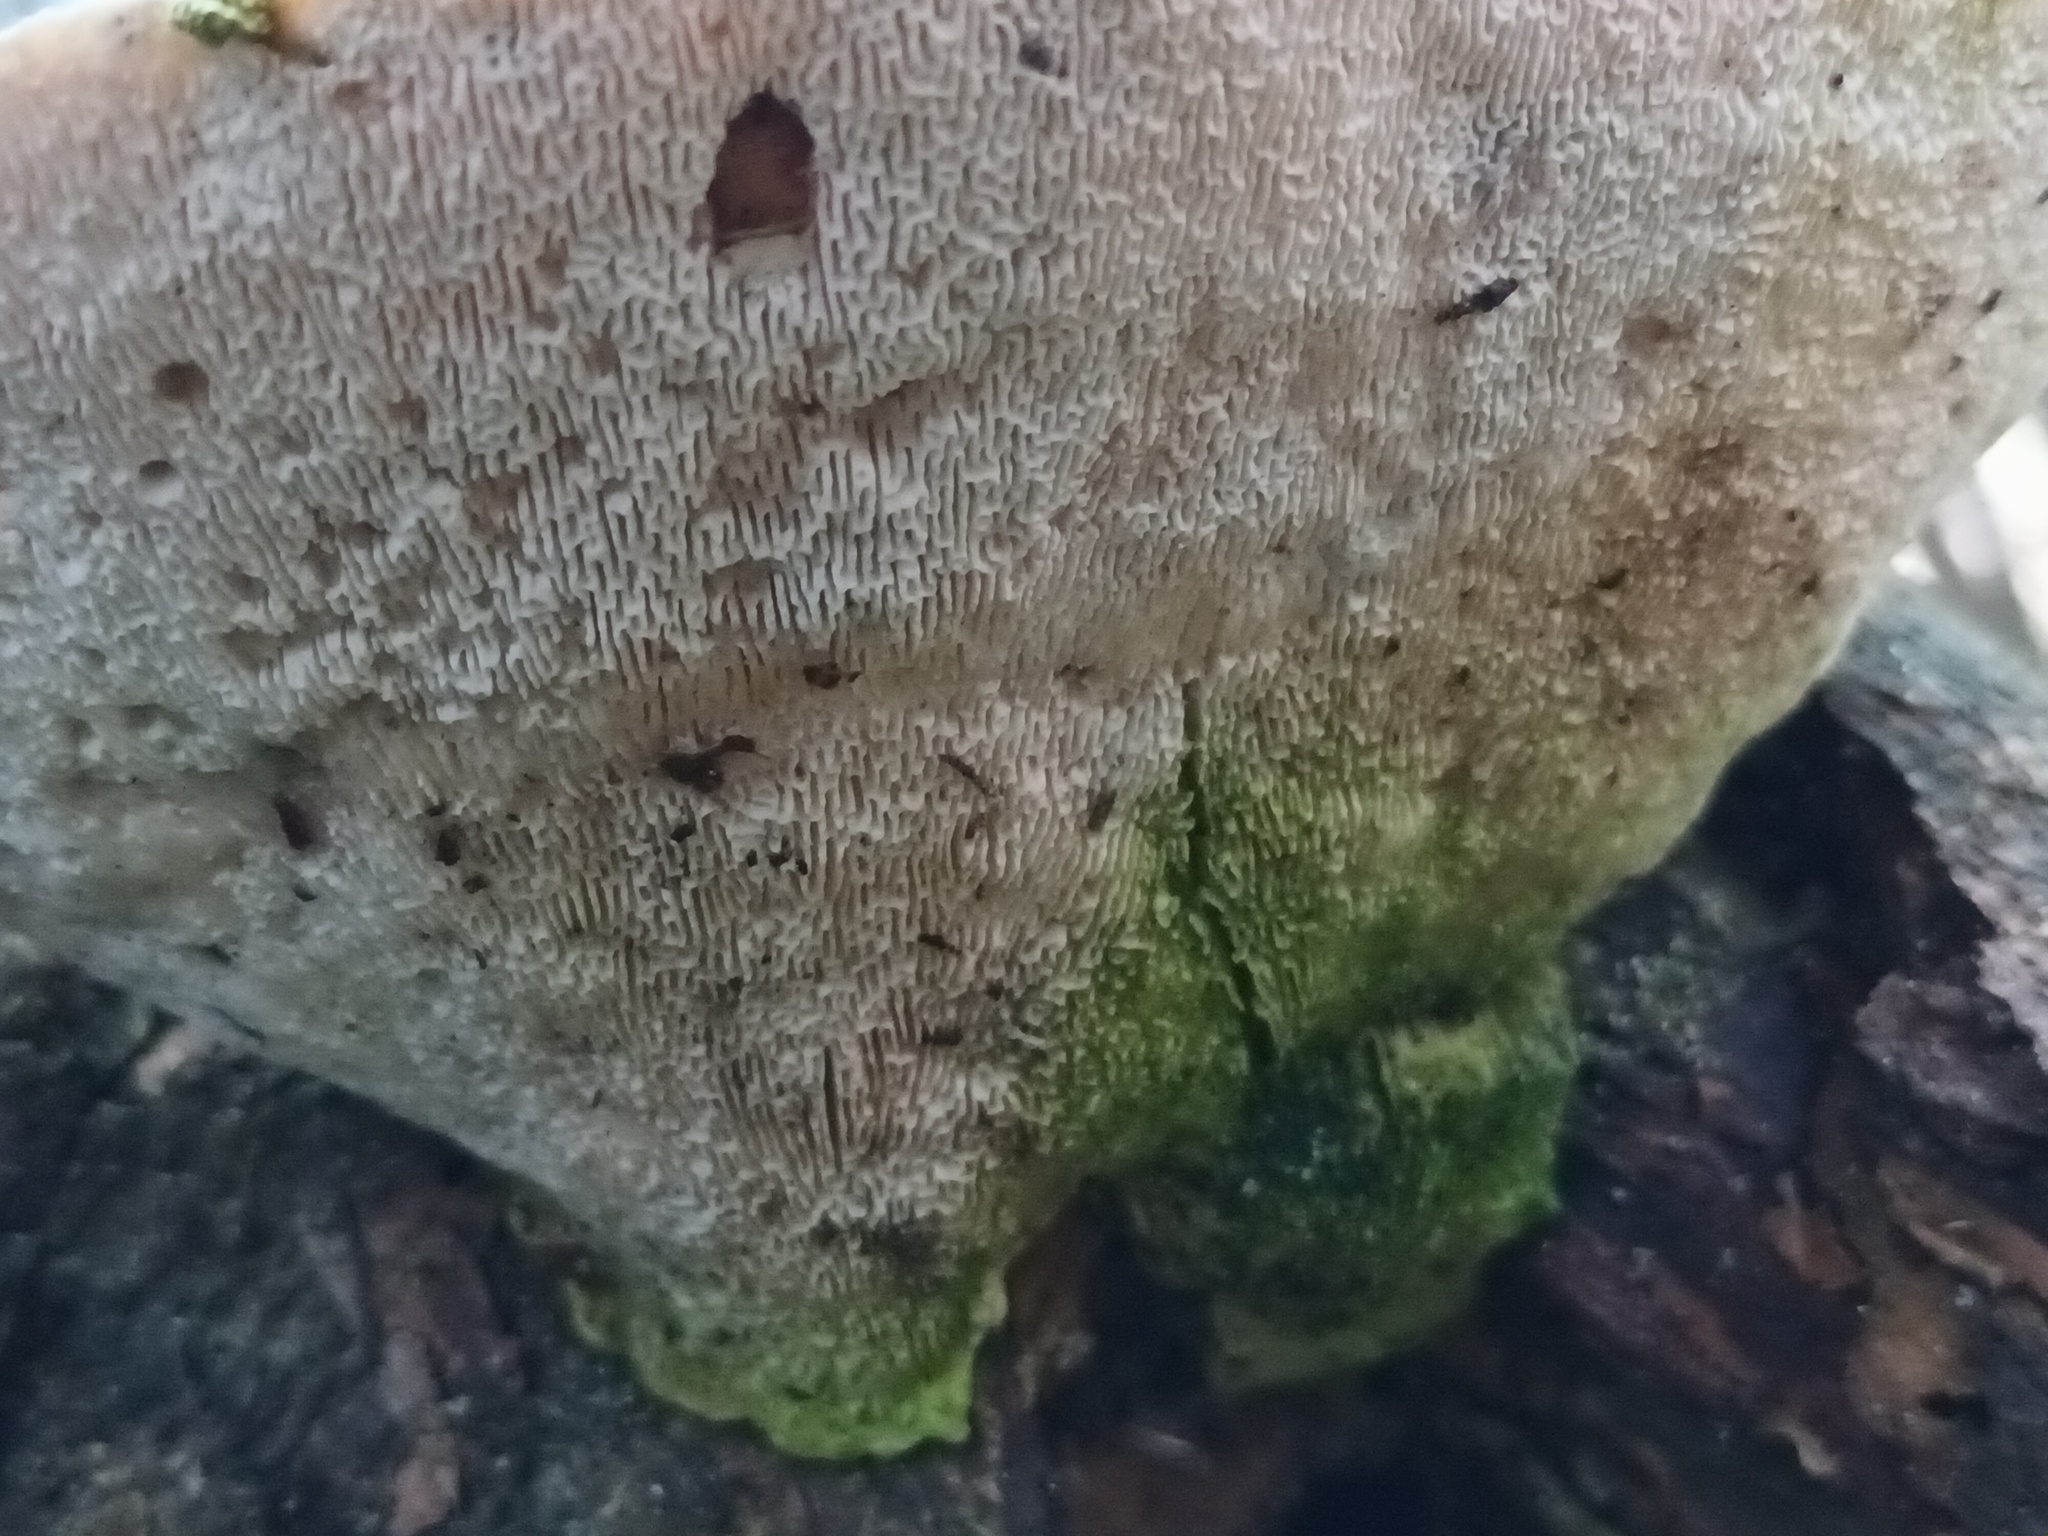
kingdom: Fungi
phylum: Basidiomycota
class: Agaricomycetes
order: Polyporales
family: Polyporaceae
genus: Trametes
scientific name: Trametes gibbosa
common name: Lumpy bracket
